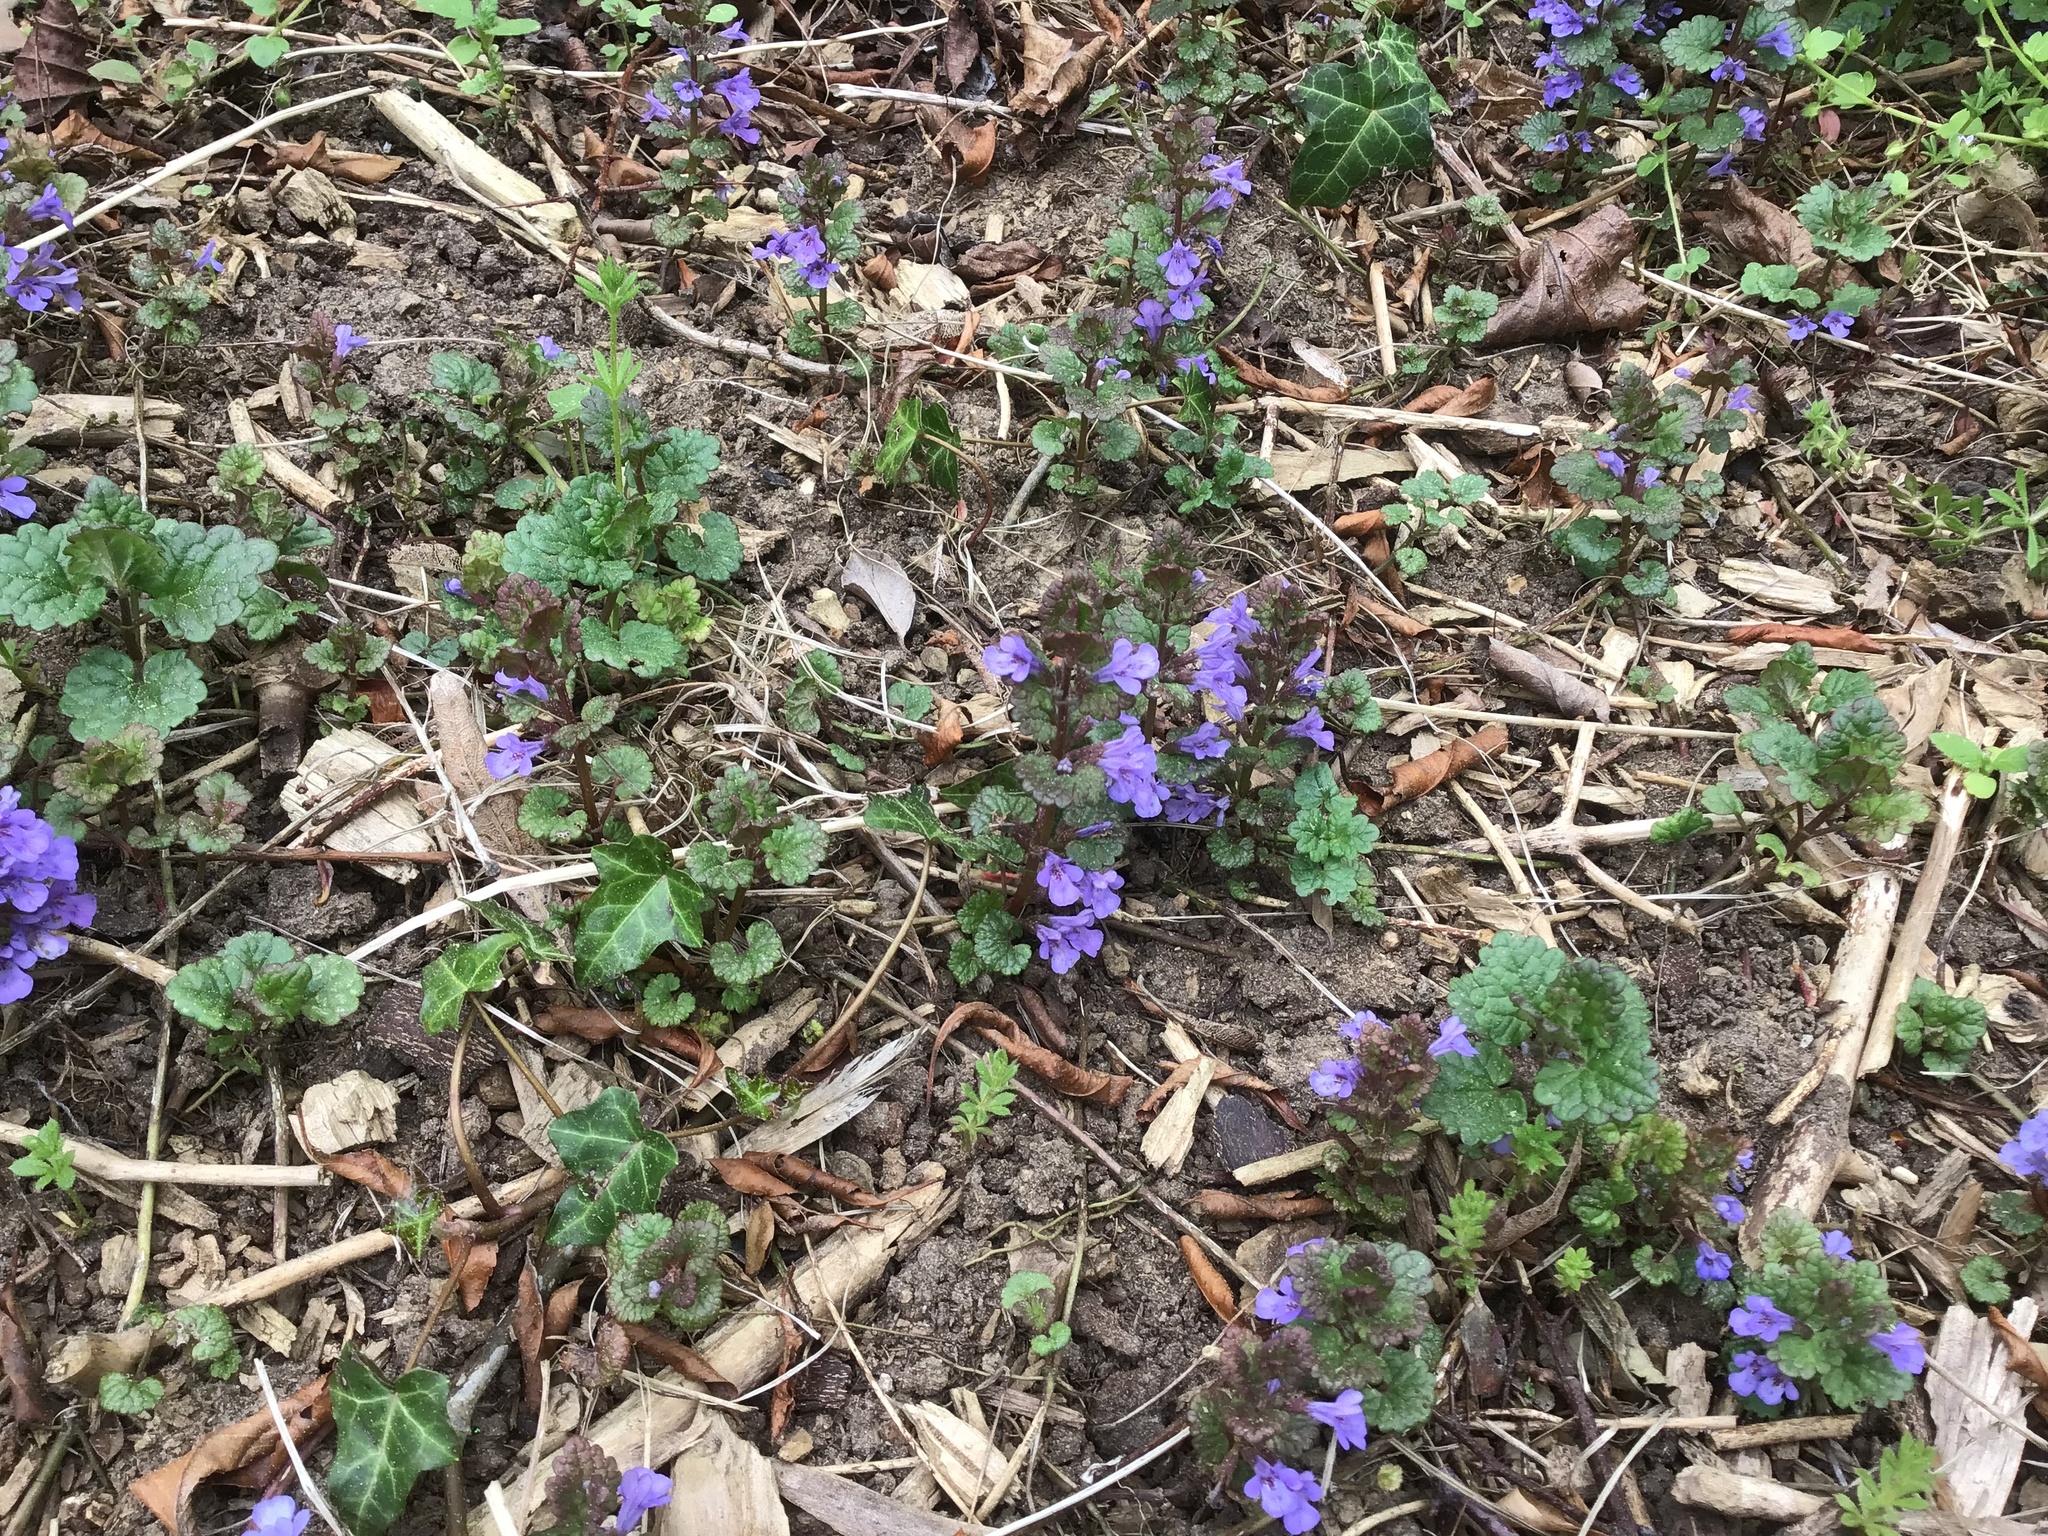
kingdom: Plantae
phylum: Tracheophyta
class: Magnoliopsida
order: Lamiales
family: Lamiaceae
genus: Glechoma
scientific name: Glechoma hederacea
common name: Ground ivy
